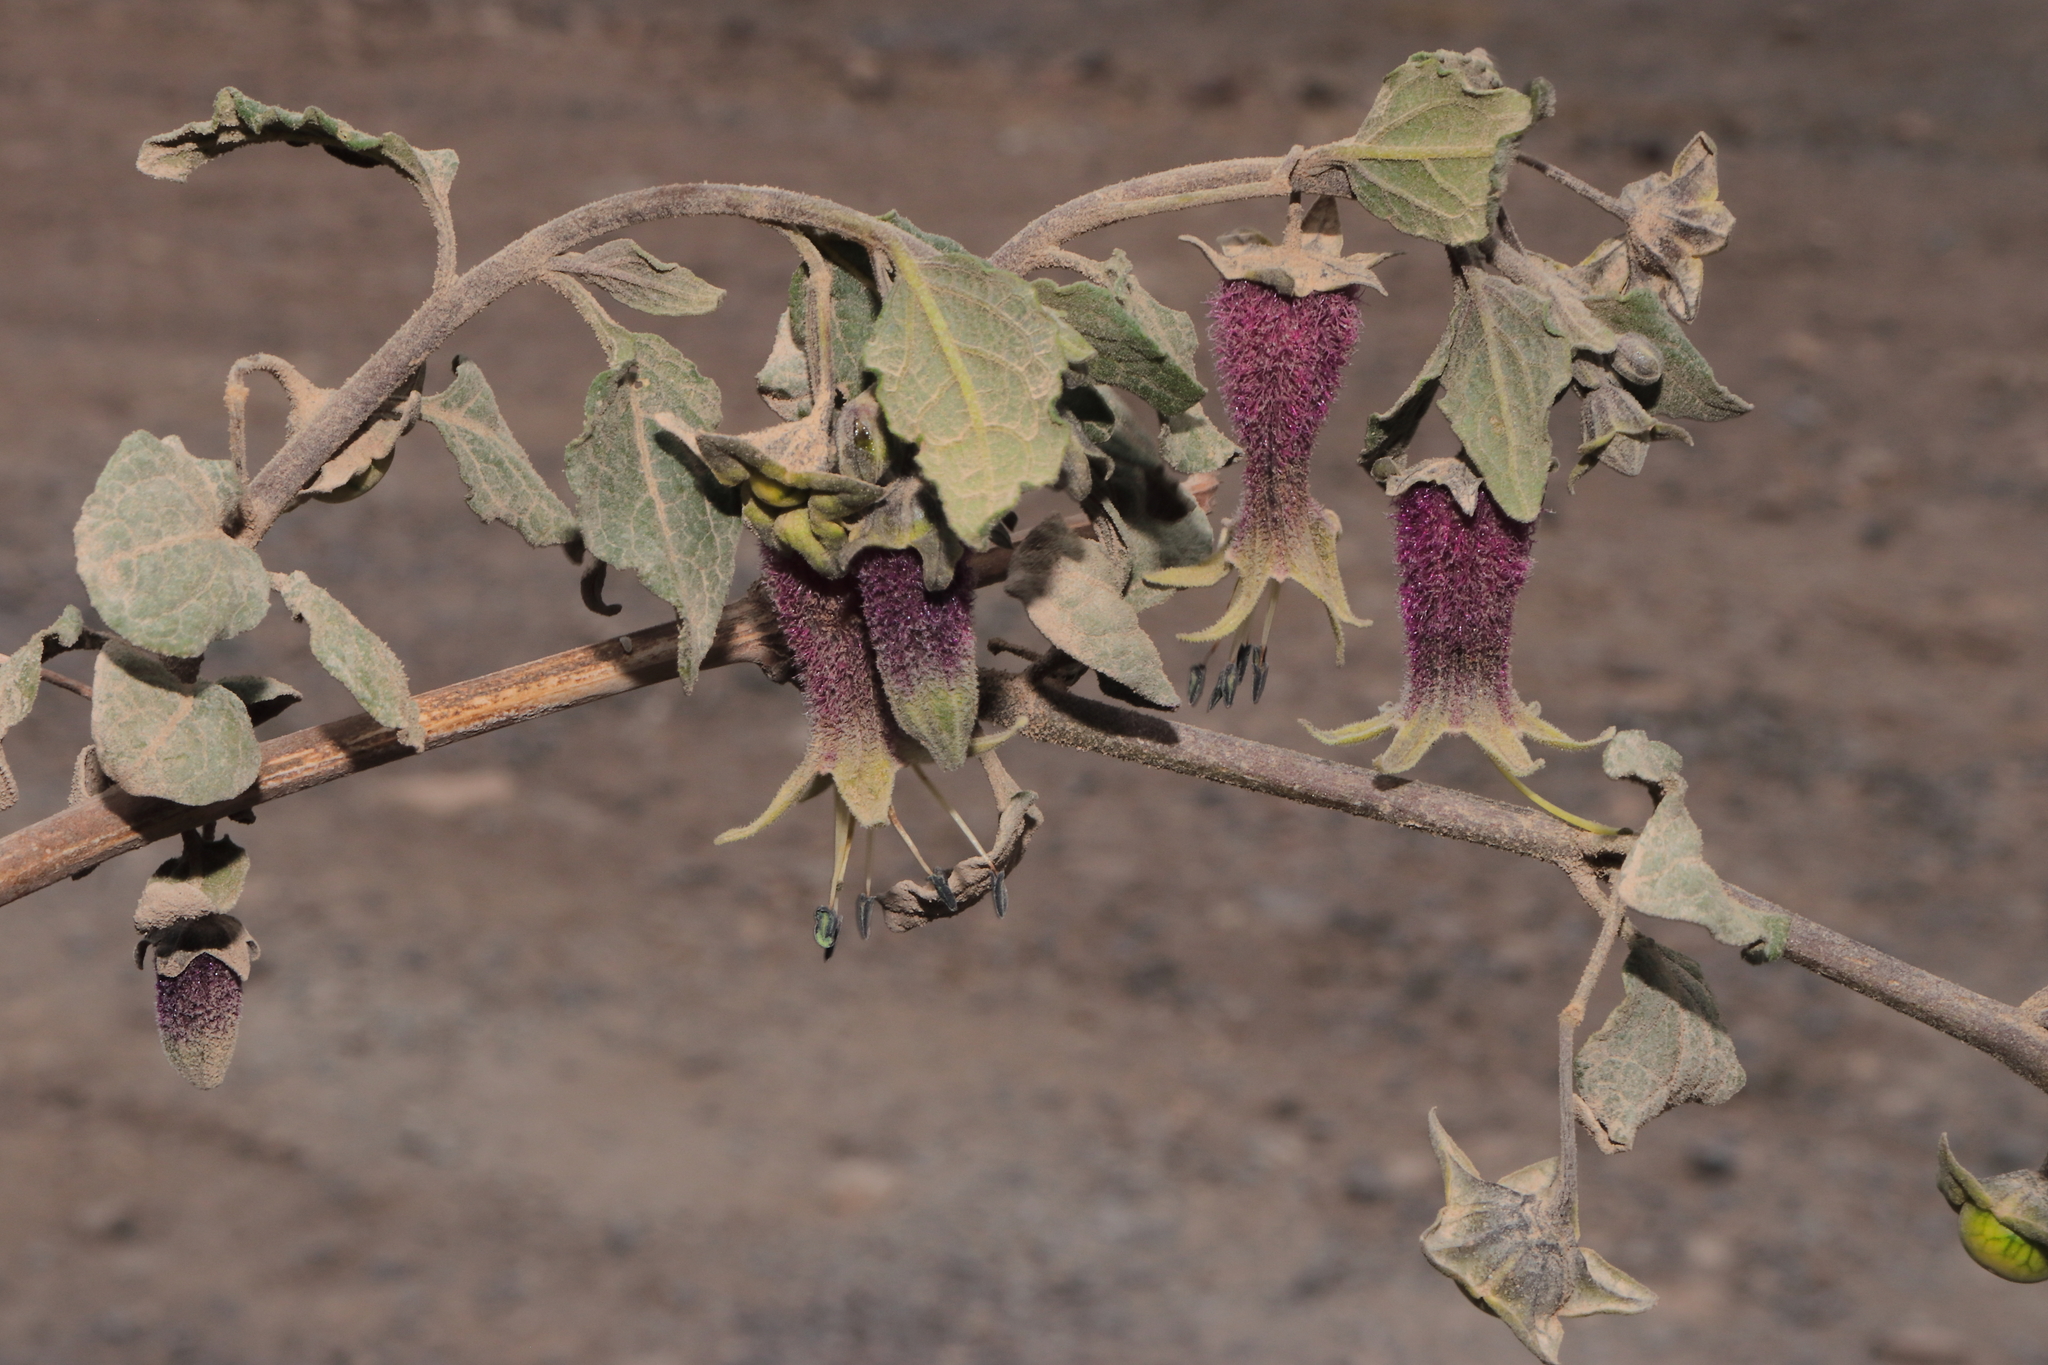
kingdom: Plantae
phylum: Tracheophyta
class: Magnoliopsida
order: Solanales
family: Solanaceae
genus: Jaltomata
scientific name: Jaltomata bicolor
